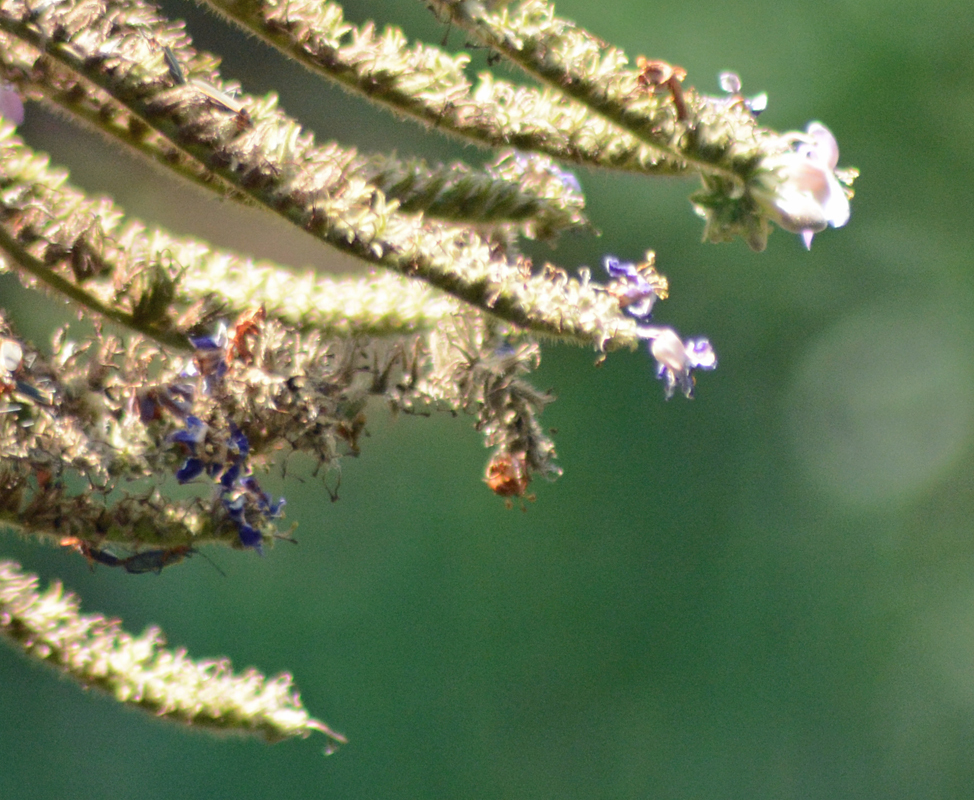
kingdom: Plantae
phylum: Tracheophyta
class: Magnoliopsida
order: Boraginales
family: Namaceae
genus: Wigandia
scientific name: Wigandia urens
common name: Caracus wigandia
